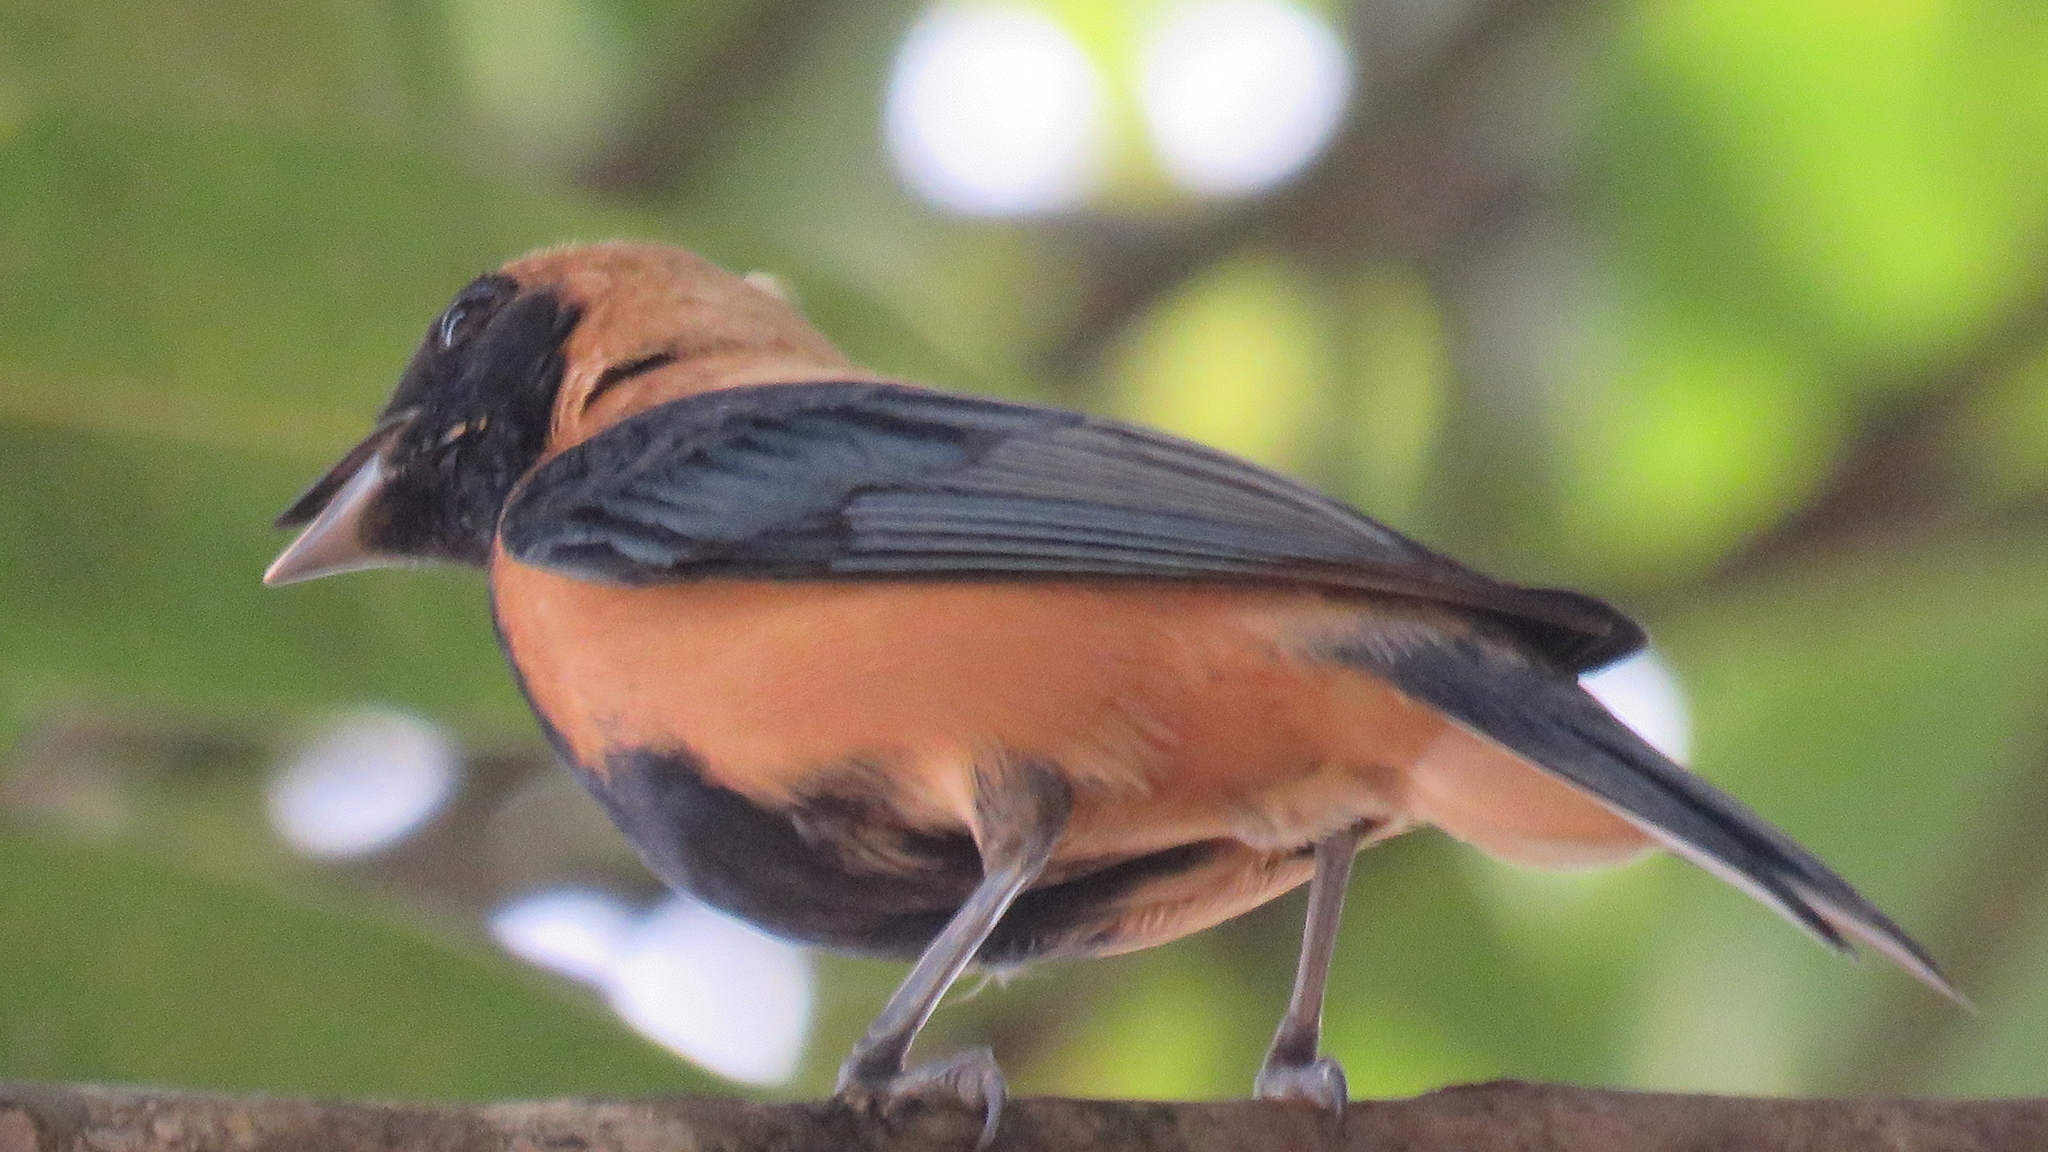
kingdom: Animalia
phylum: Chordata
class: Aves
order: Passeriformes
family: Thraupidae
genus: Stilpnia
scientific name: Stilpnia cayana
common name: Burnished-buff tanager
